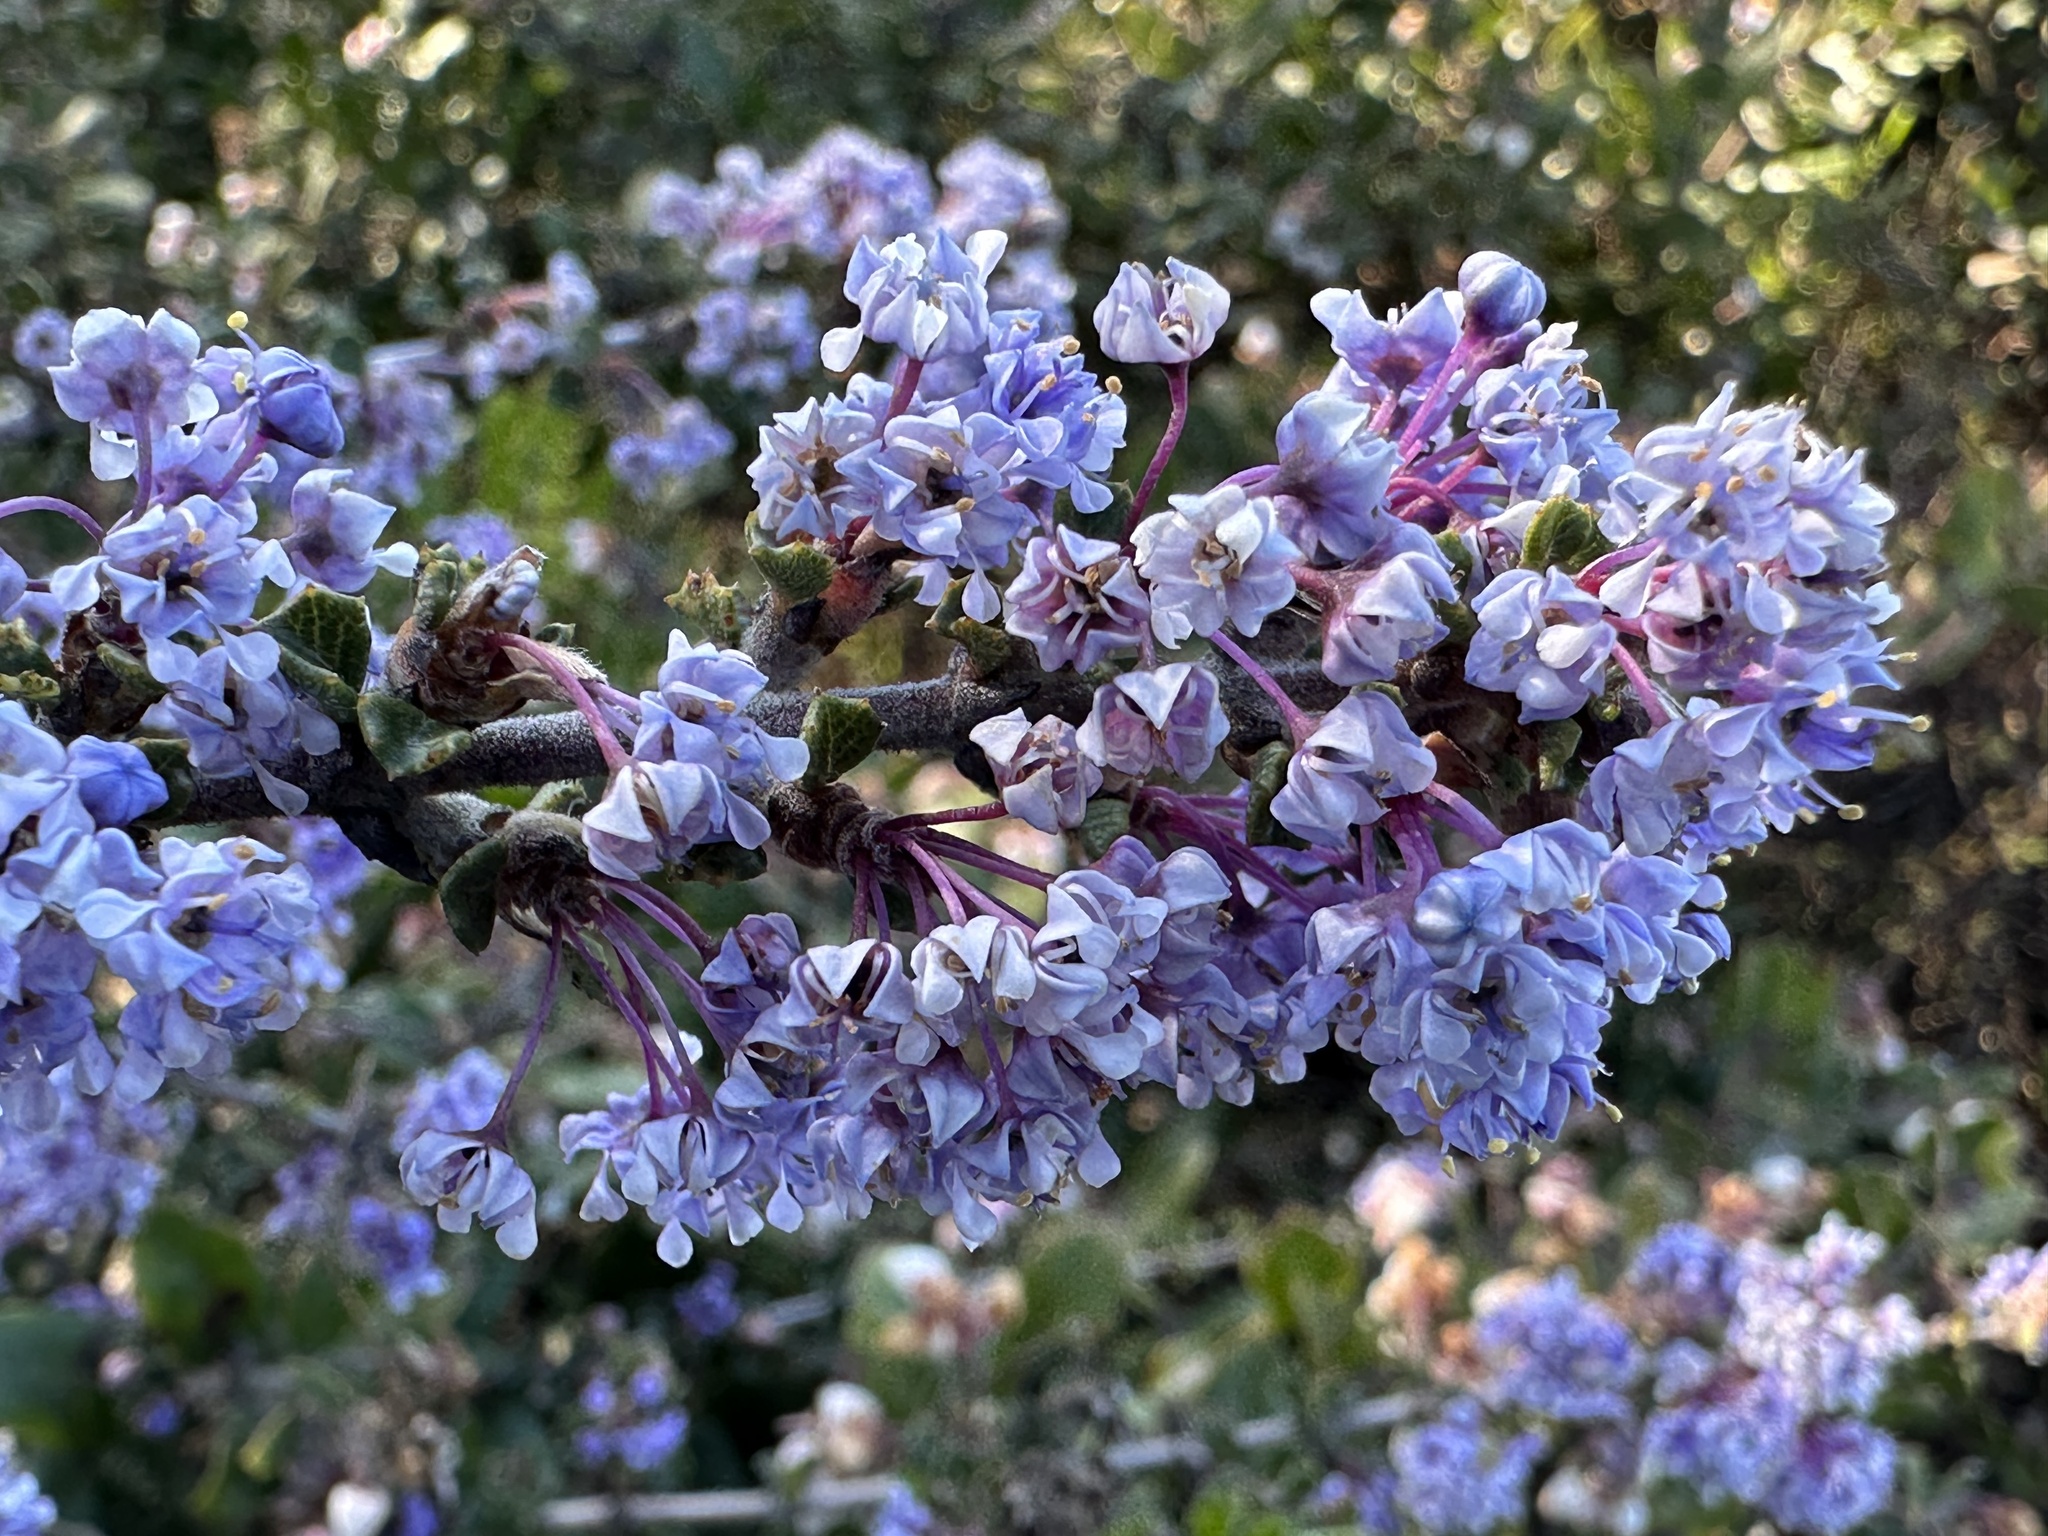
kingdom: Plantae
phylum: Tracheophyta
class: Magnoliopsida
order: Rosales
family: Rhamnaceae
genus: Ceanothus
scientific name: Ceanothus cuneatus
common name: Cuneate ceanothus
